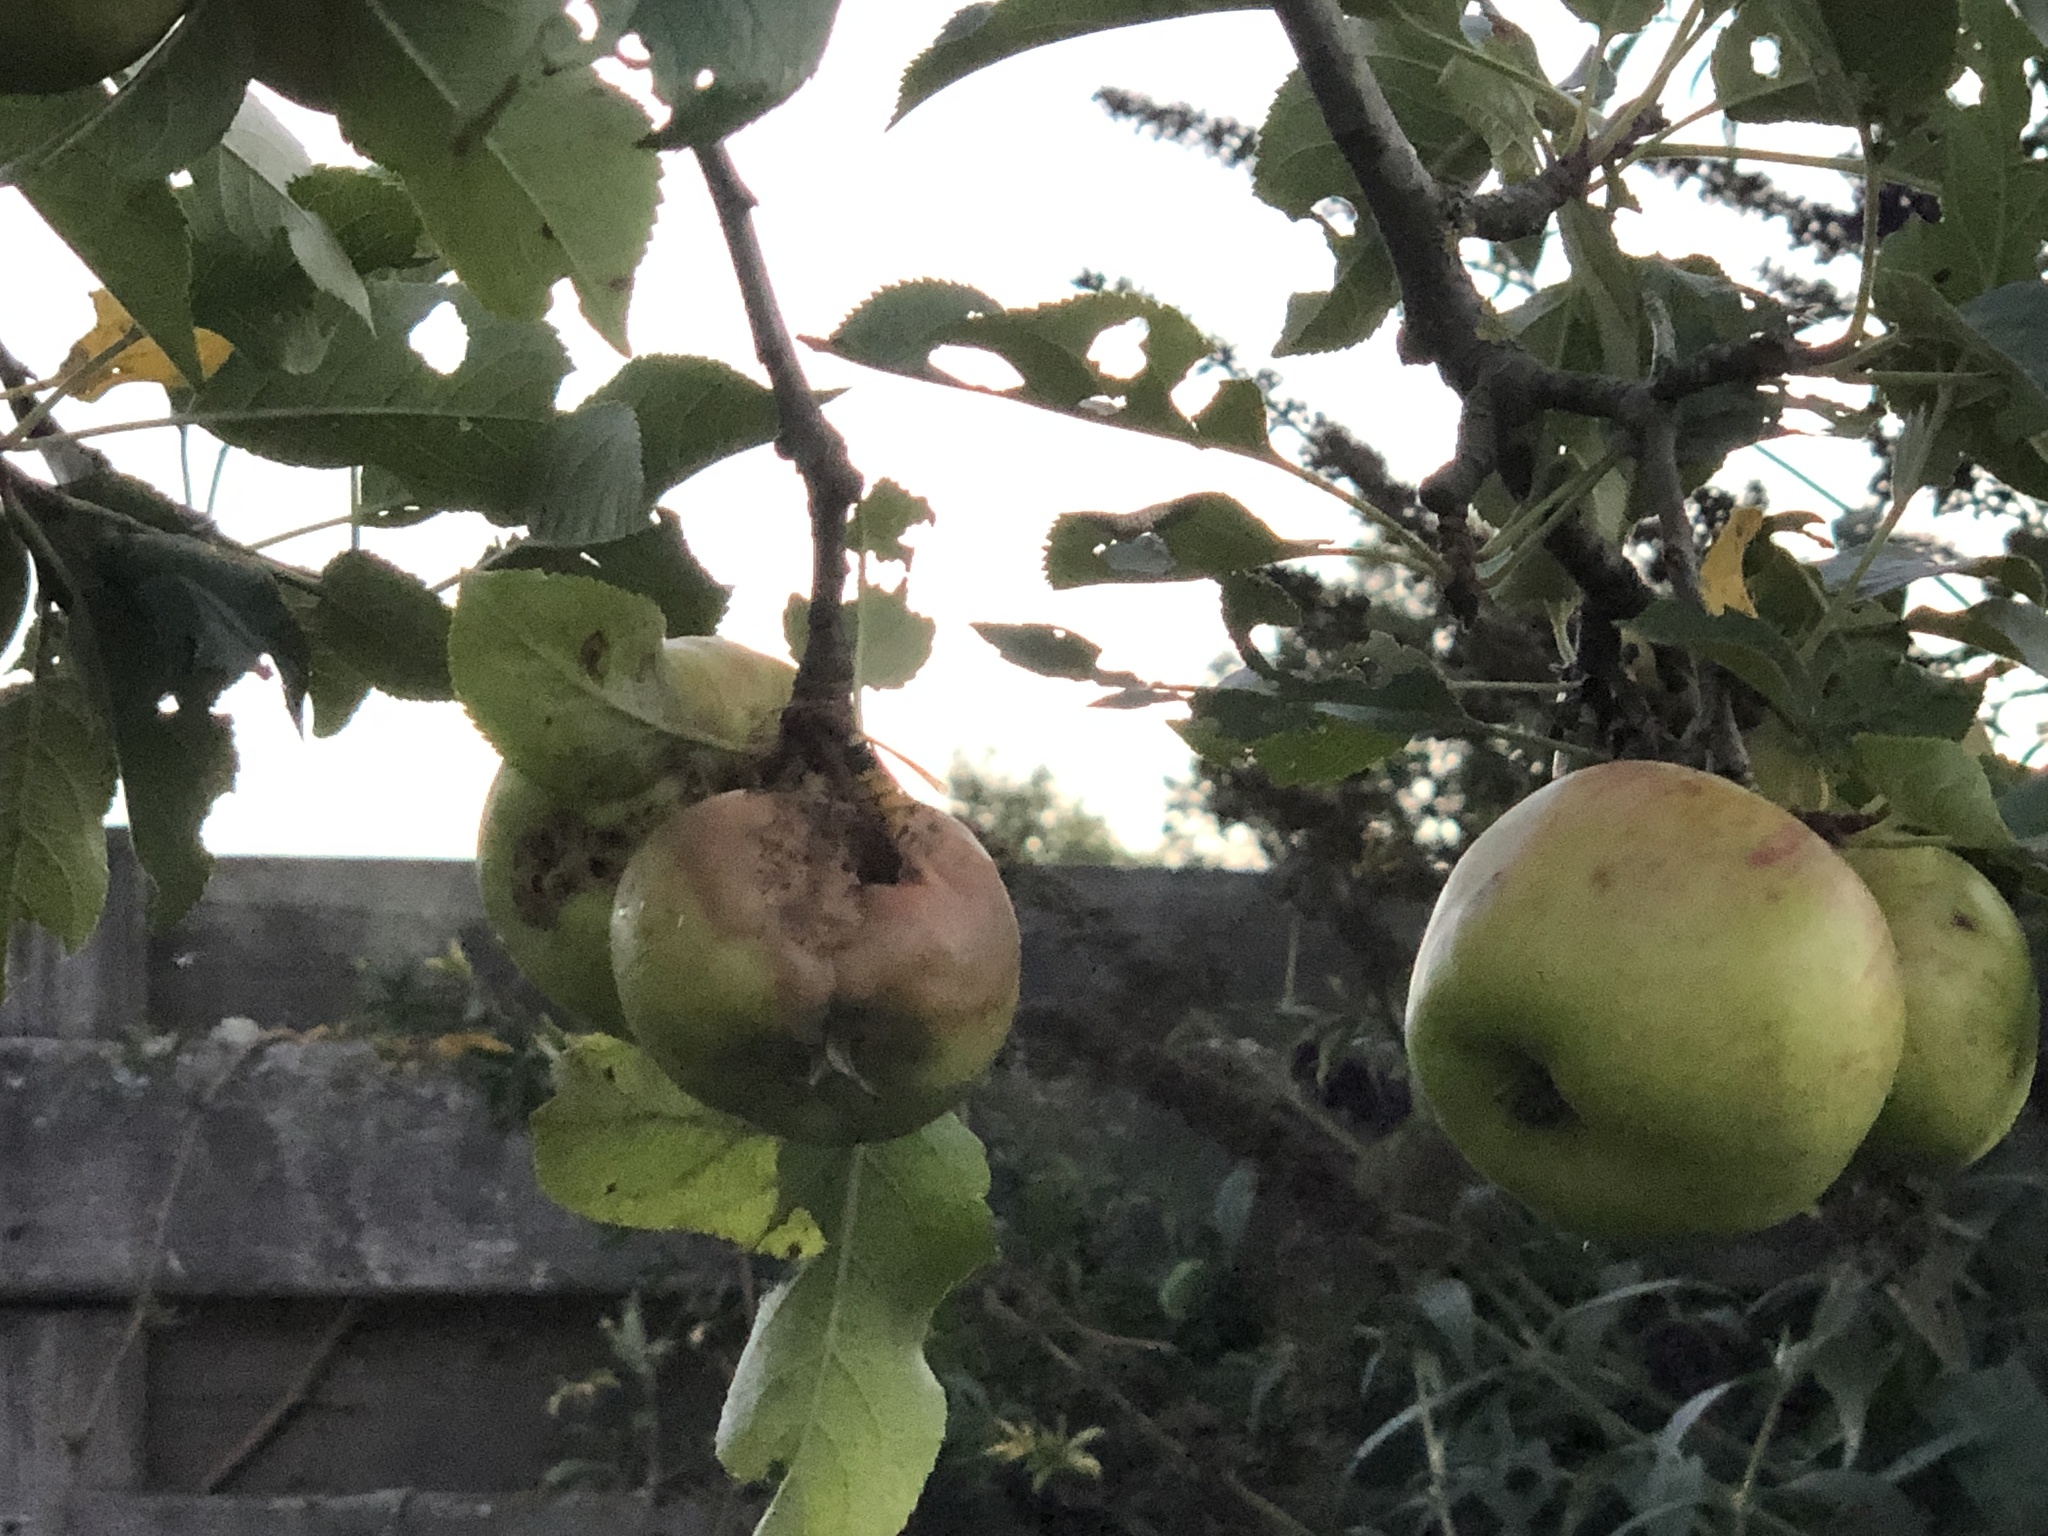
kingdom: Animalia
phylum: Arthropoda
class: Insecta
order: Hymenoptera
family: Vespidae
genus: Vespa
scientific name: Vespa crabro
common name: Hornet
